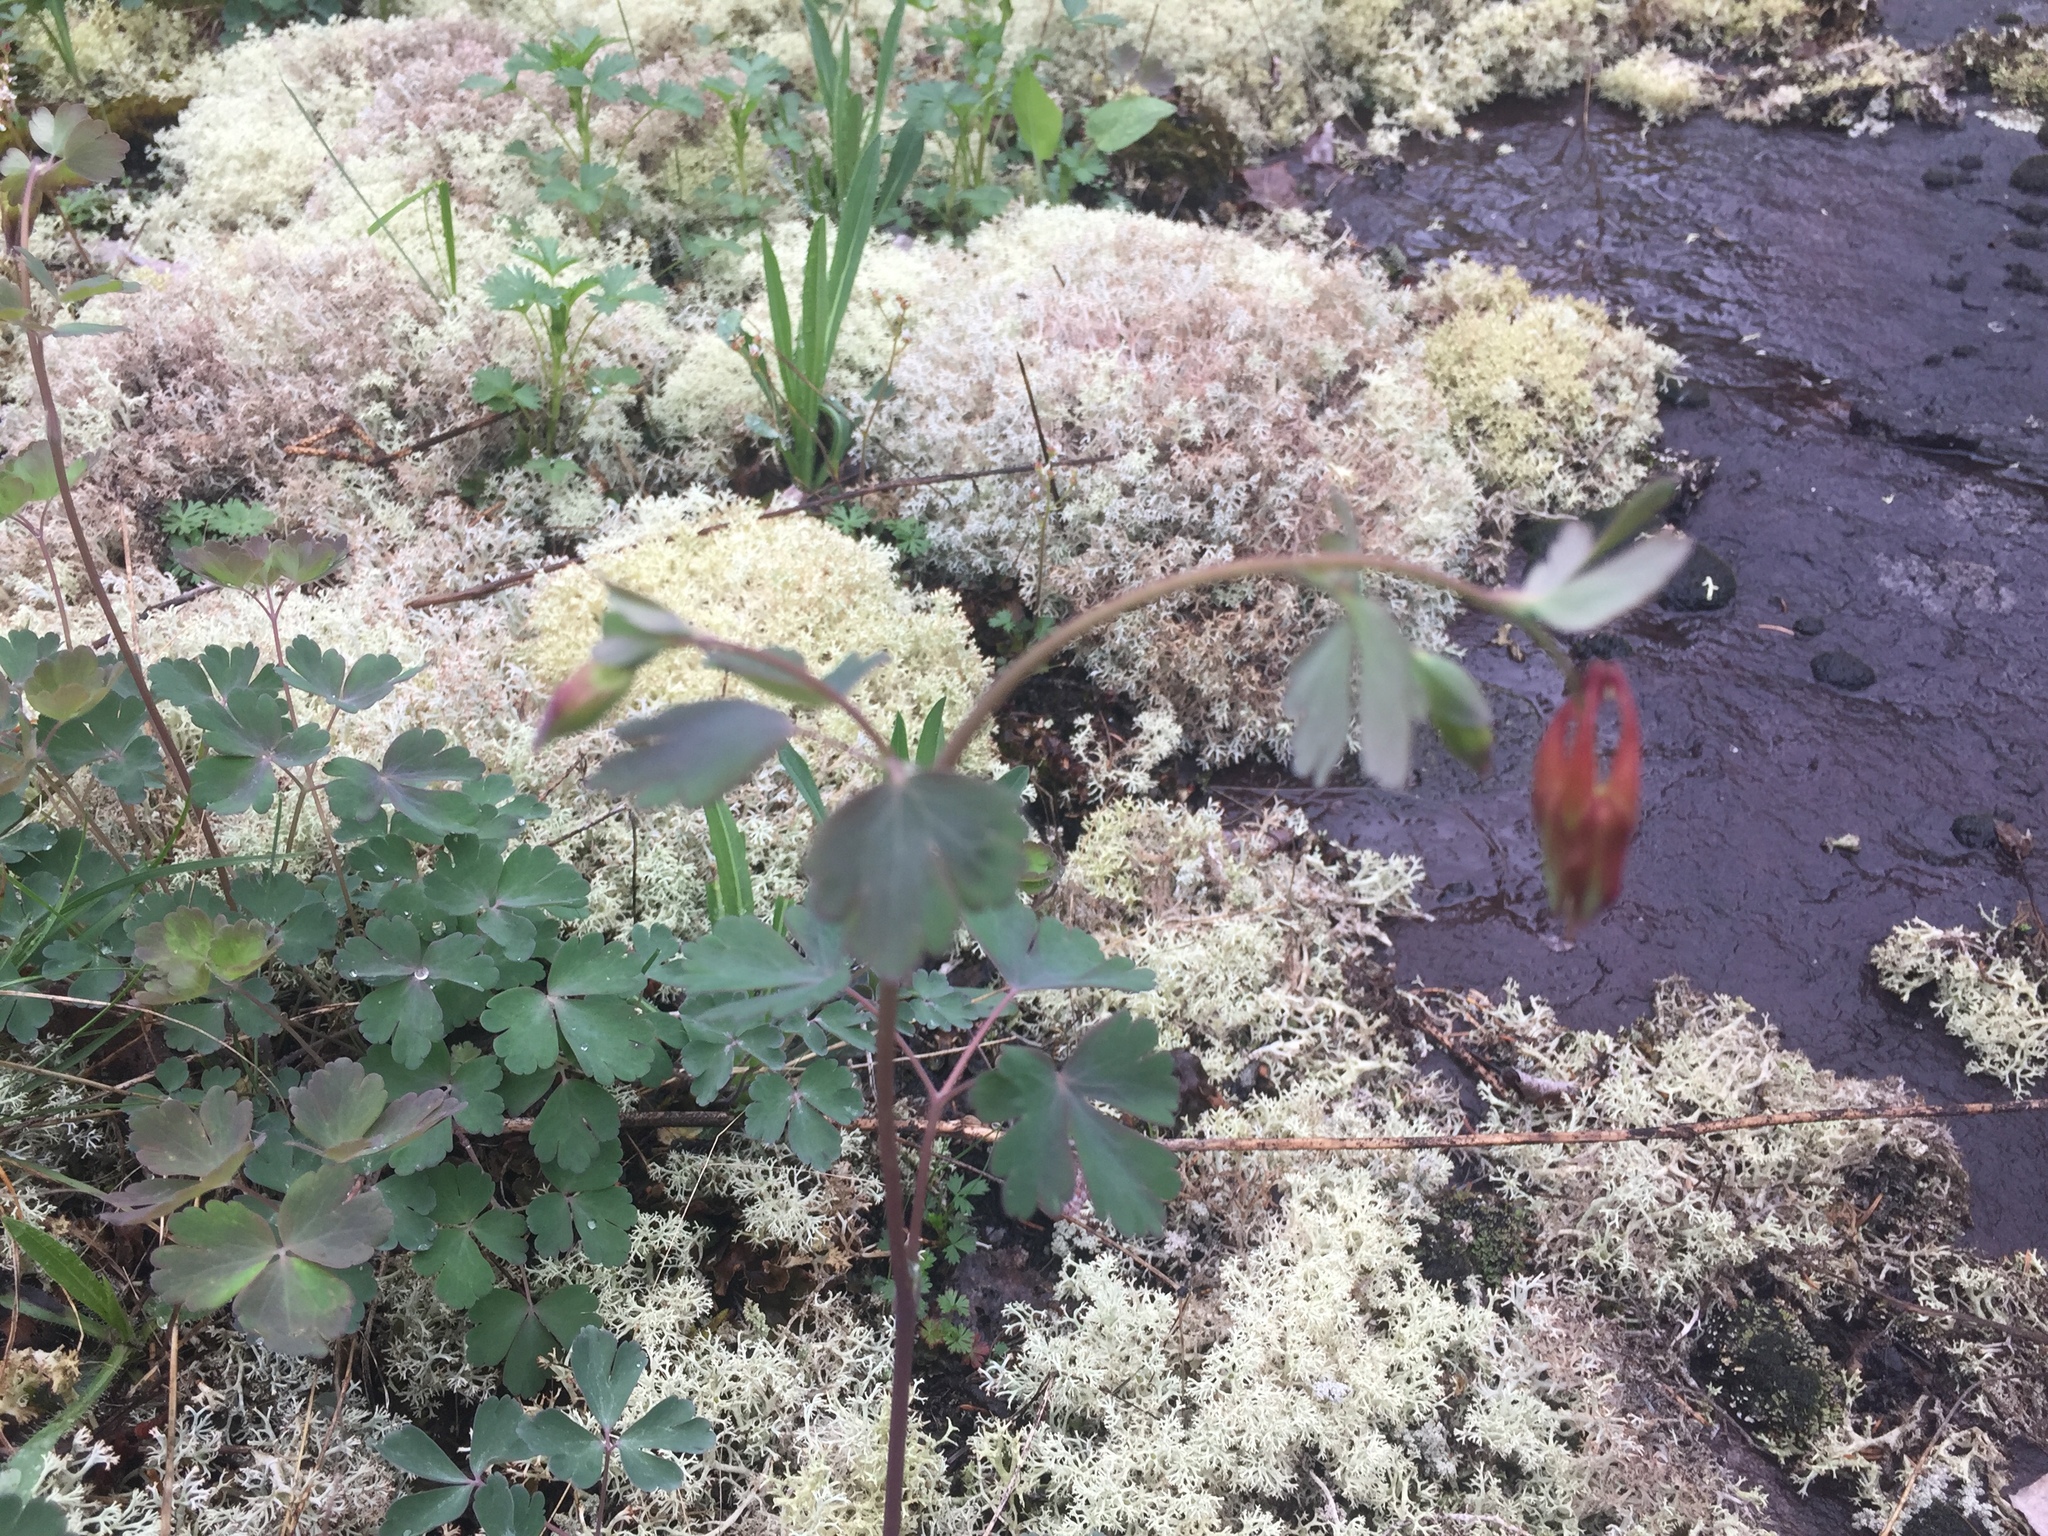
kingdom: Plantae
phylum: Tracheophyta
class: Magnoliopsida
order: Ranunculales
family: Ranunculaceae
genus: Aquilegia
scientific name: Aquilegia canadensis
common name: American columbine
